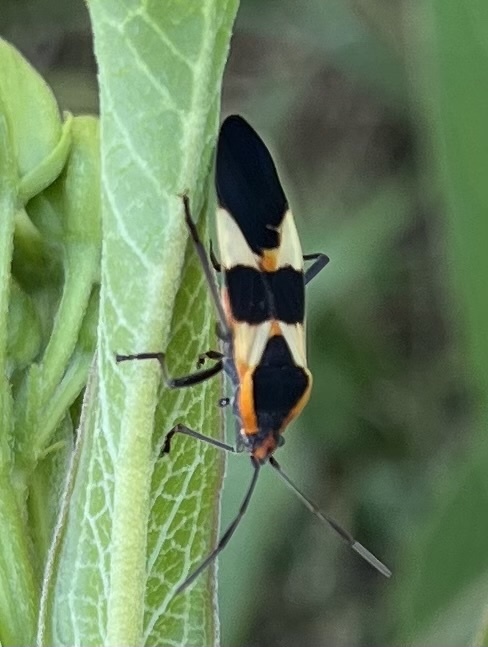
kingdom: Animalia
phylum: Arthropoda
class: Insecta
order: Hemiptera
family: Lygaeidae
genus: Oncopeltus
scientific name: Oncopeltus fasciatus
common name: Large milkweed bug
